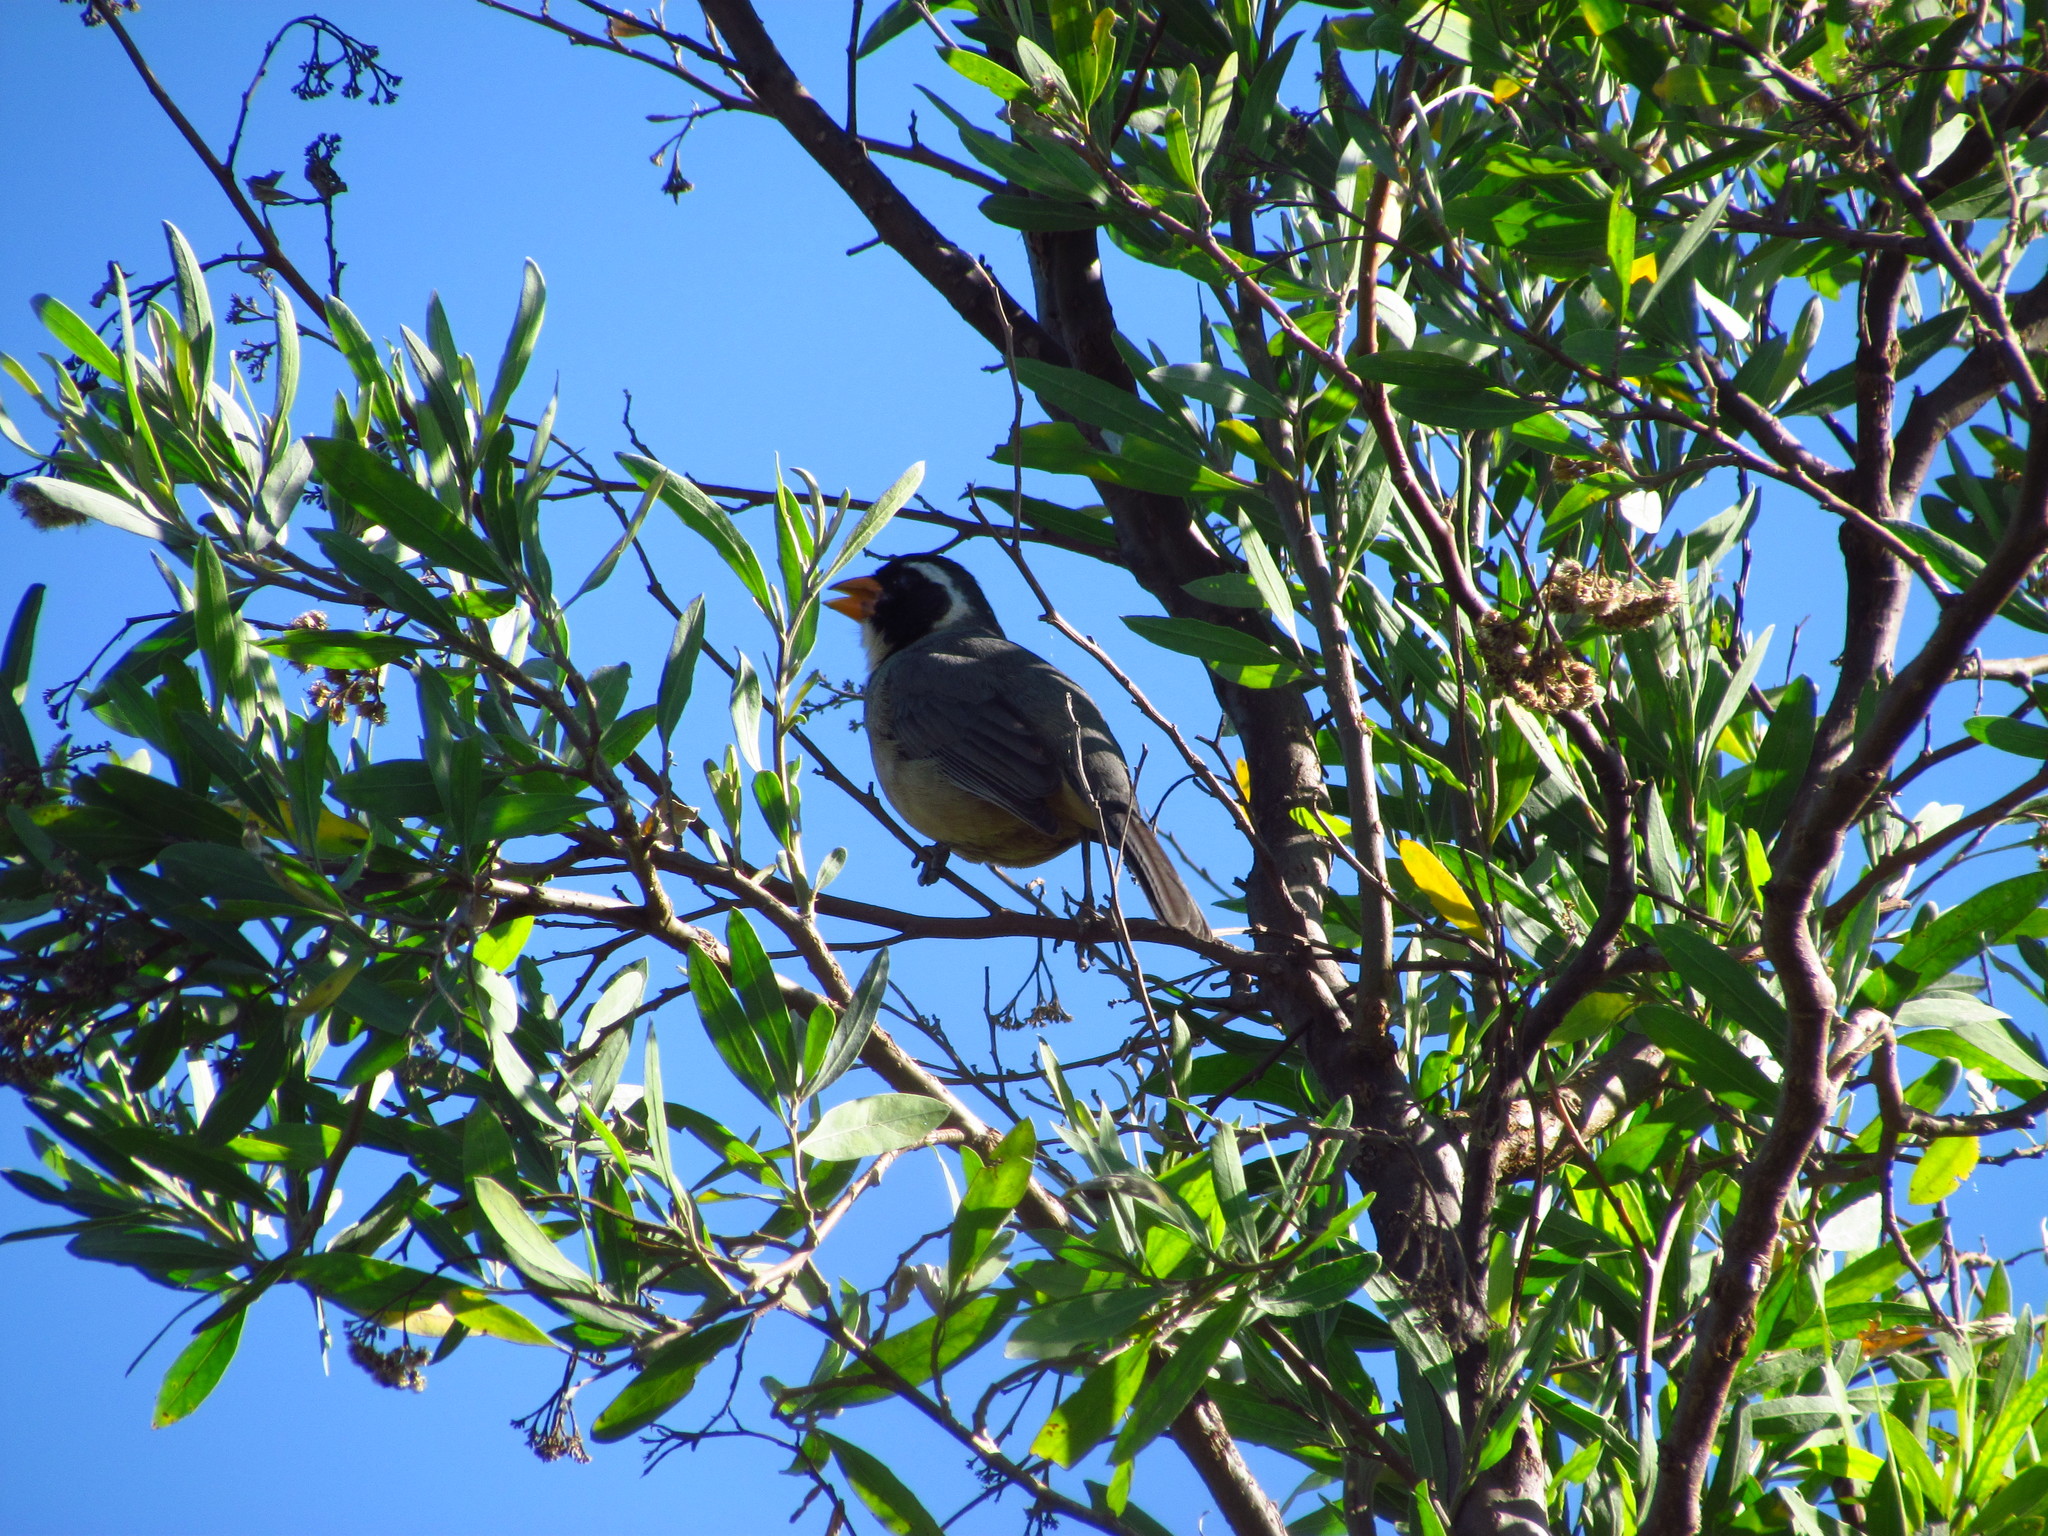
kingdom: Animalia
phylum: Chordata
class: Aves
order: Passeriformes
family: Thraupidae
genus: Saltator
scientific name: Saltator aurantiirostris
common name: Golden-billed saltator
